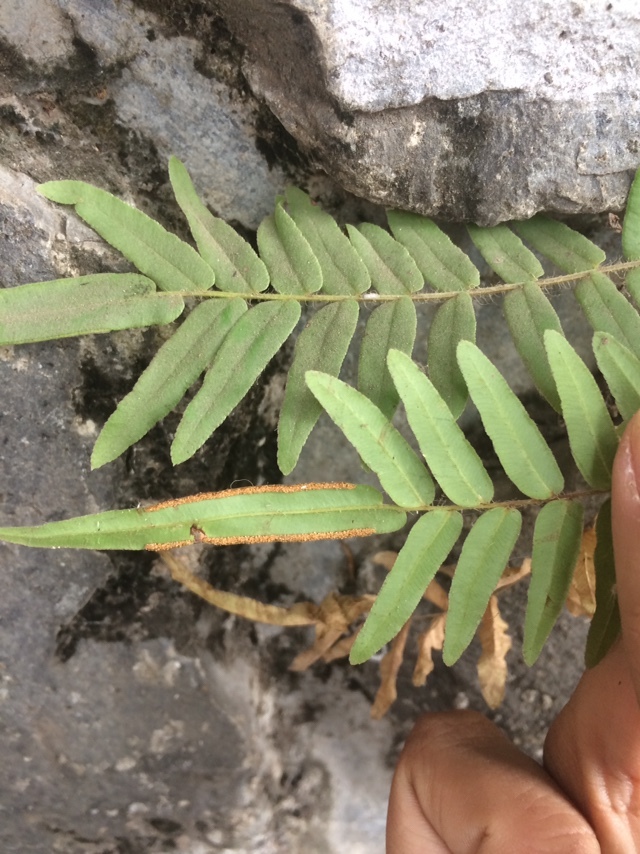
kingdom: Plantae
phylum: Tracheophyta
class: Polypodiopsida
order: Polypodiales
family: Pteridaceae
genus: Pteris
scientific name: Pteris vittata
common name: Ladder brake
